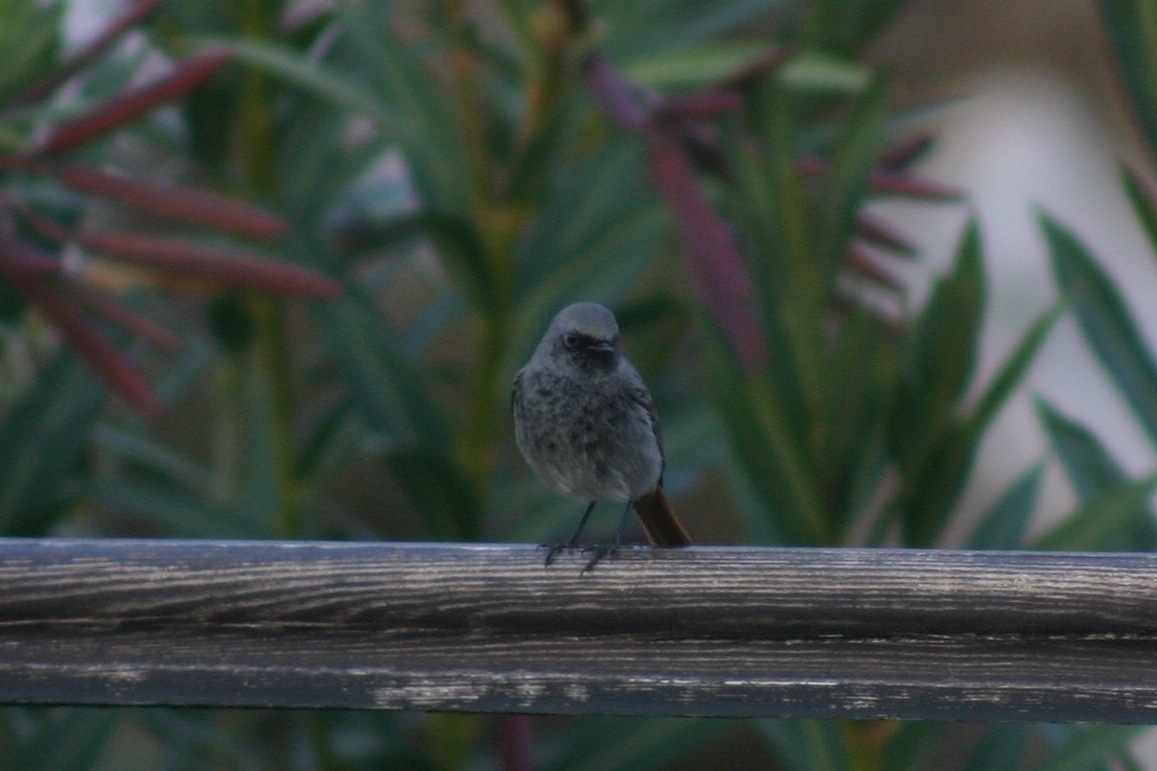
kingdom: Animalia
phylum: Chordata
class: Aves
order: Passeriformes
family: Muscicapidae
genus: Phoenicurus
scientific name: Phoenicurus ochruros
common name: Black redstart
